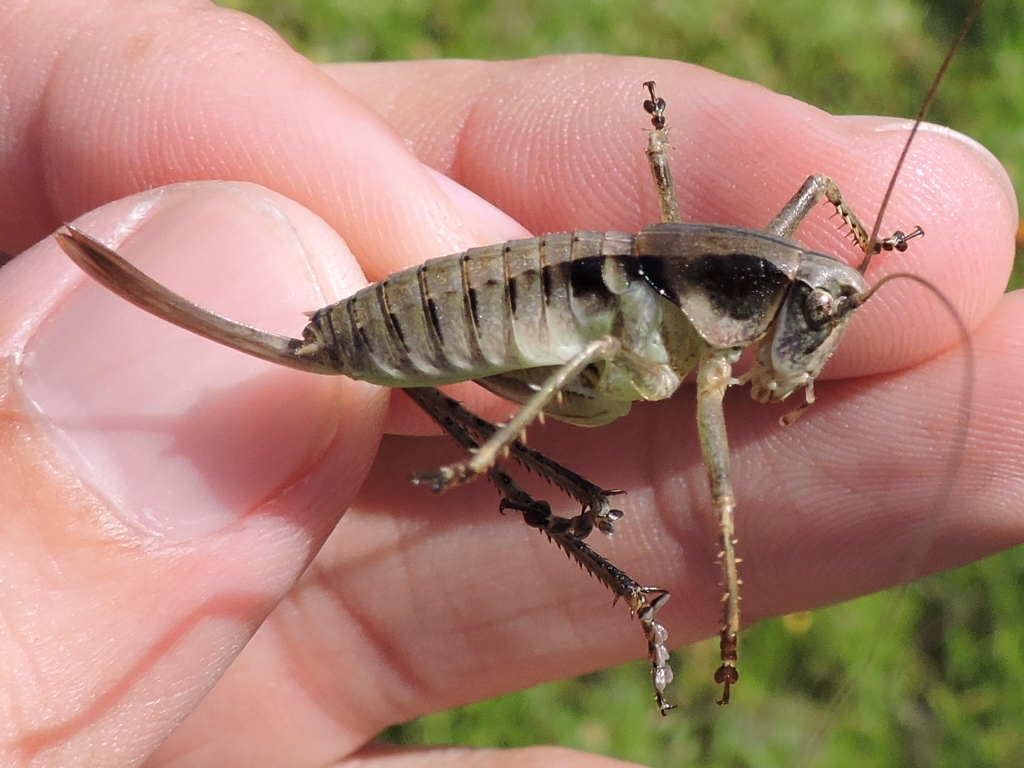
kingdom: Animalia
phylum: Arthropoda
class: Insecta
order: Orthoptera
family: Tettigoniidae
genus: Pediodectes
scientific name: Pediodectes nigromarginatus
